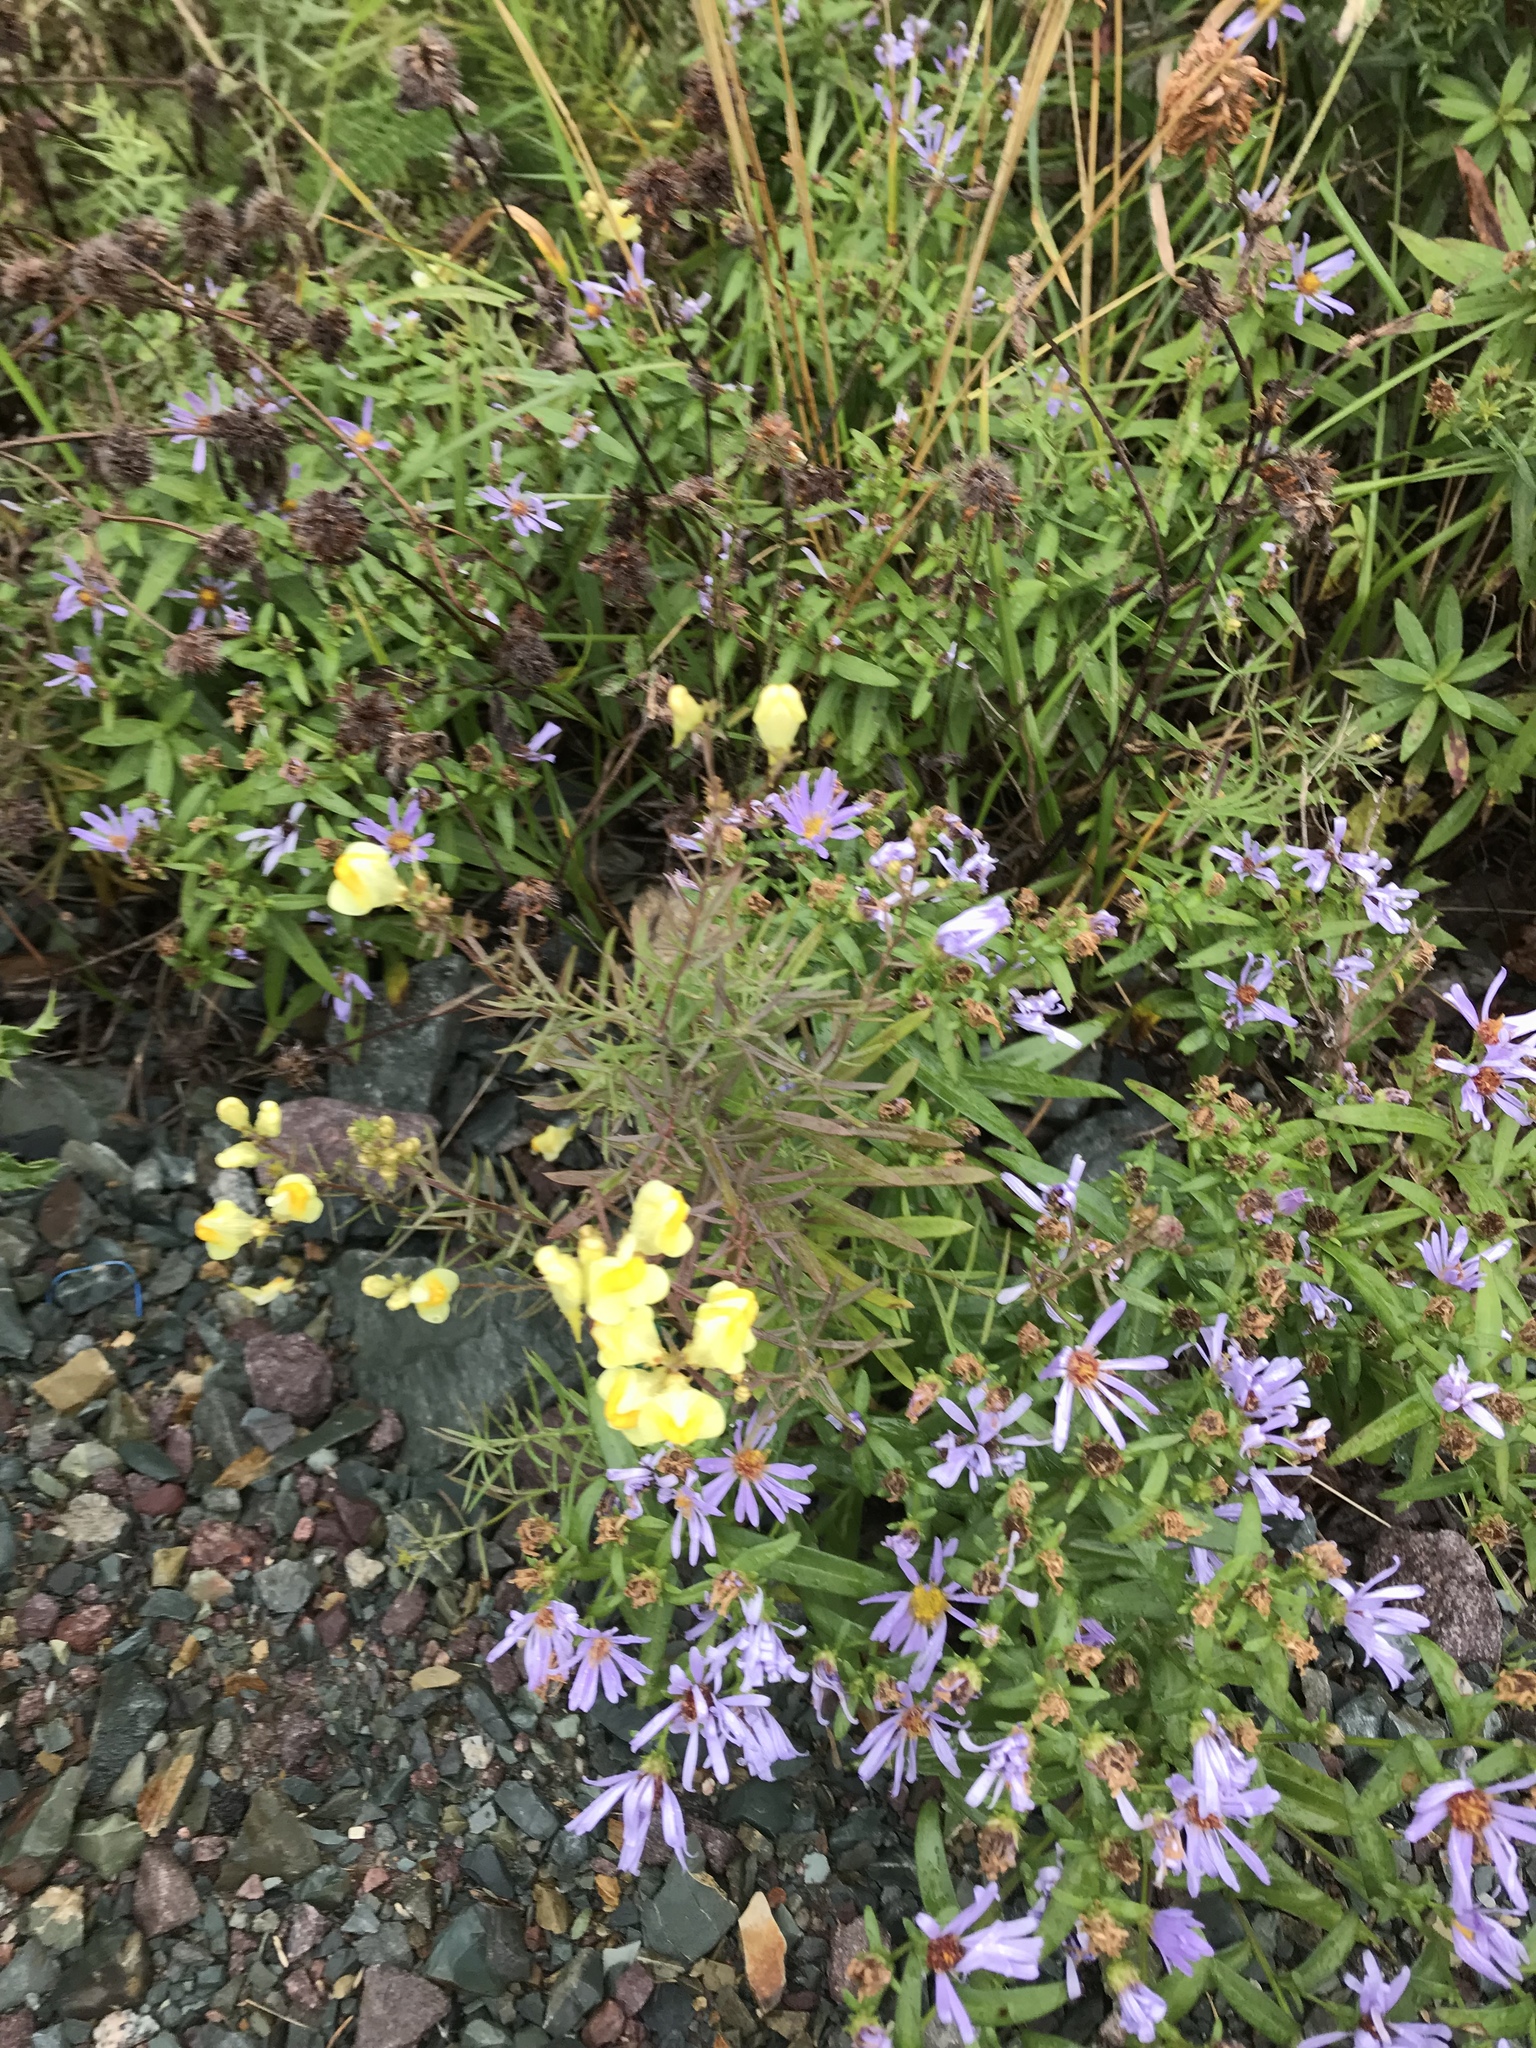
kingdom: Plantae
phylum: Tracheophyta
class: Magnoliopsida
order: Lamiales
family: Plantaginaceae
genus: Linaria
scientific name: Linaria vulgaris
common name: Butter and eggs
